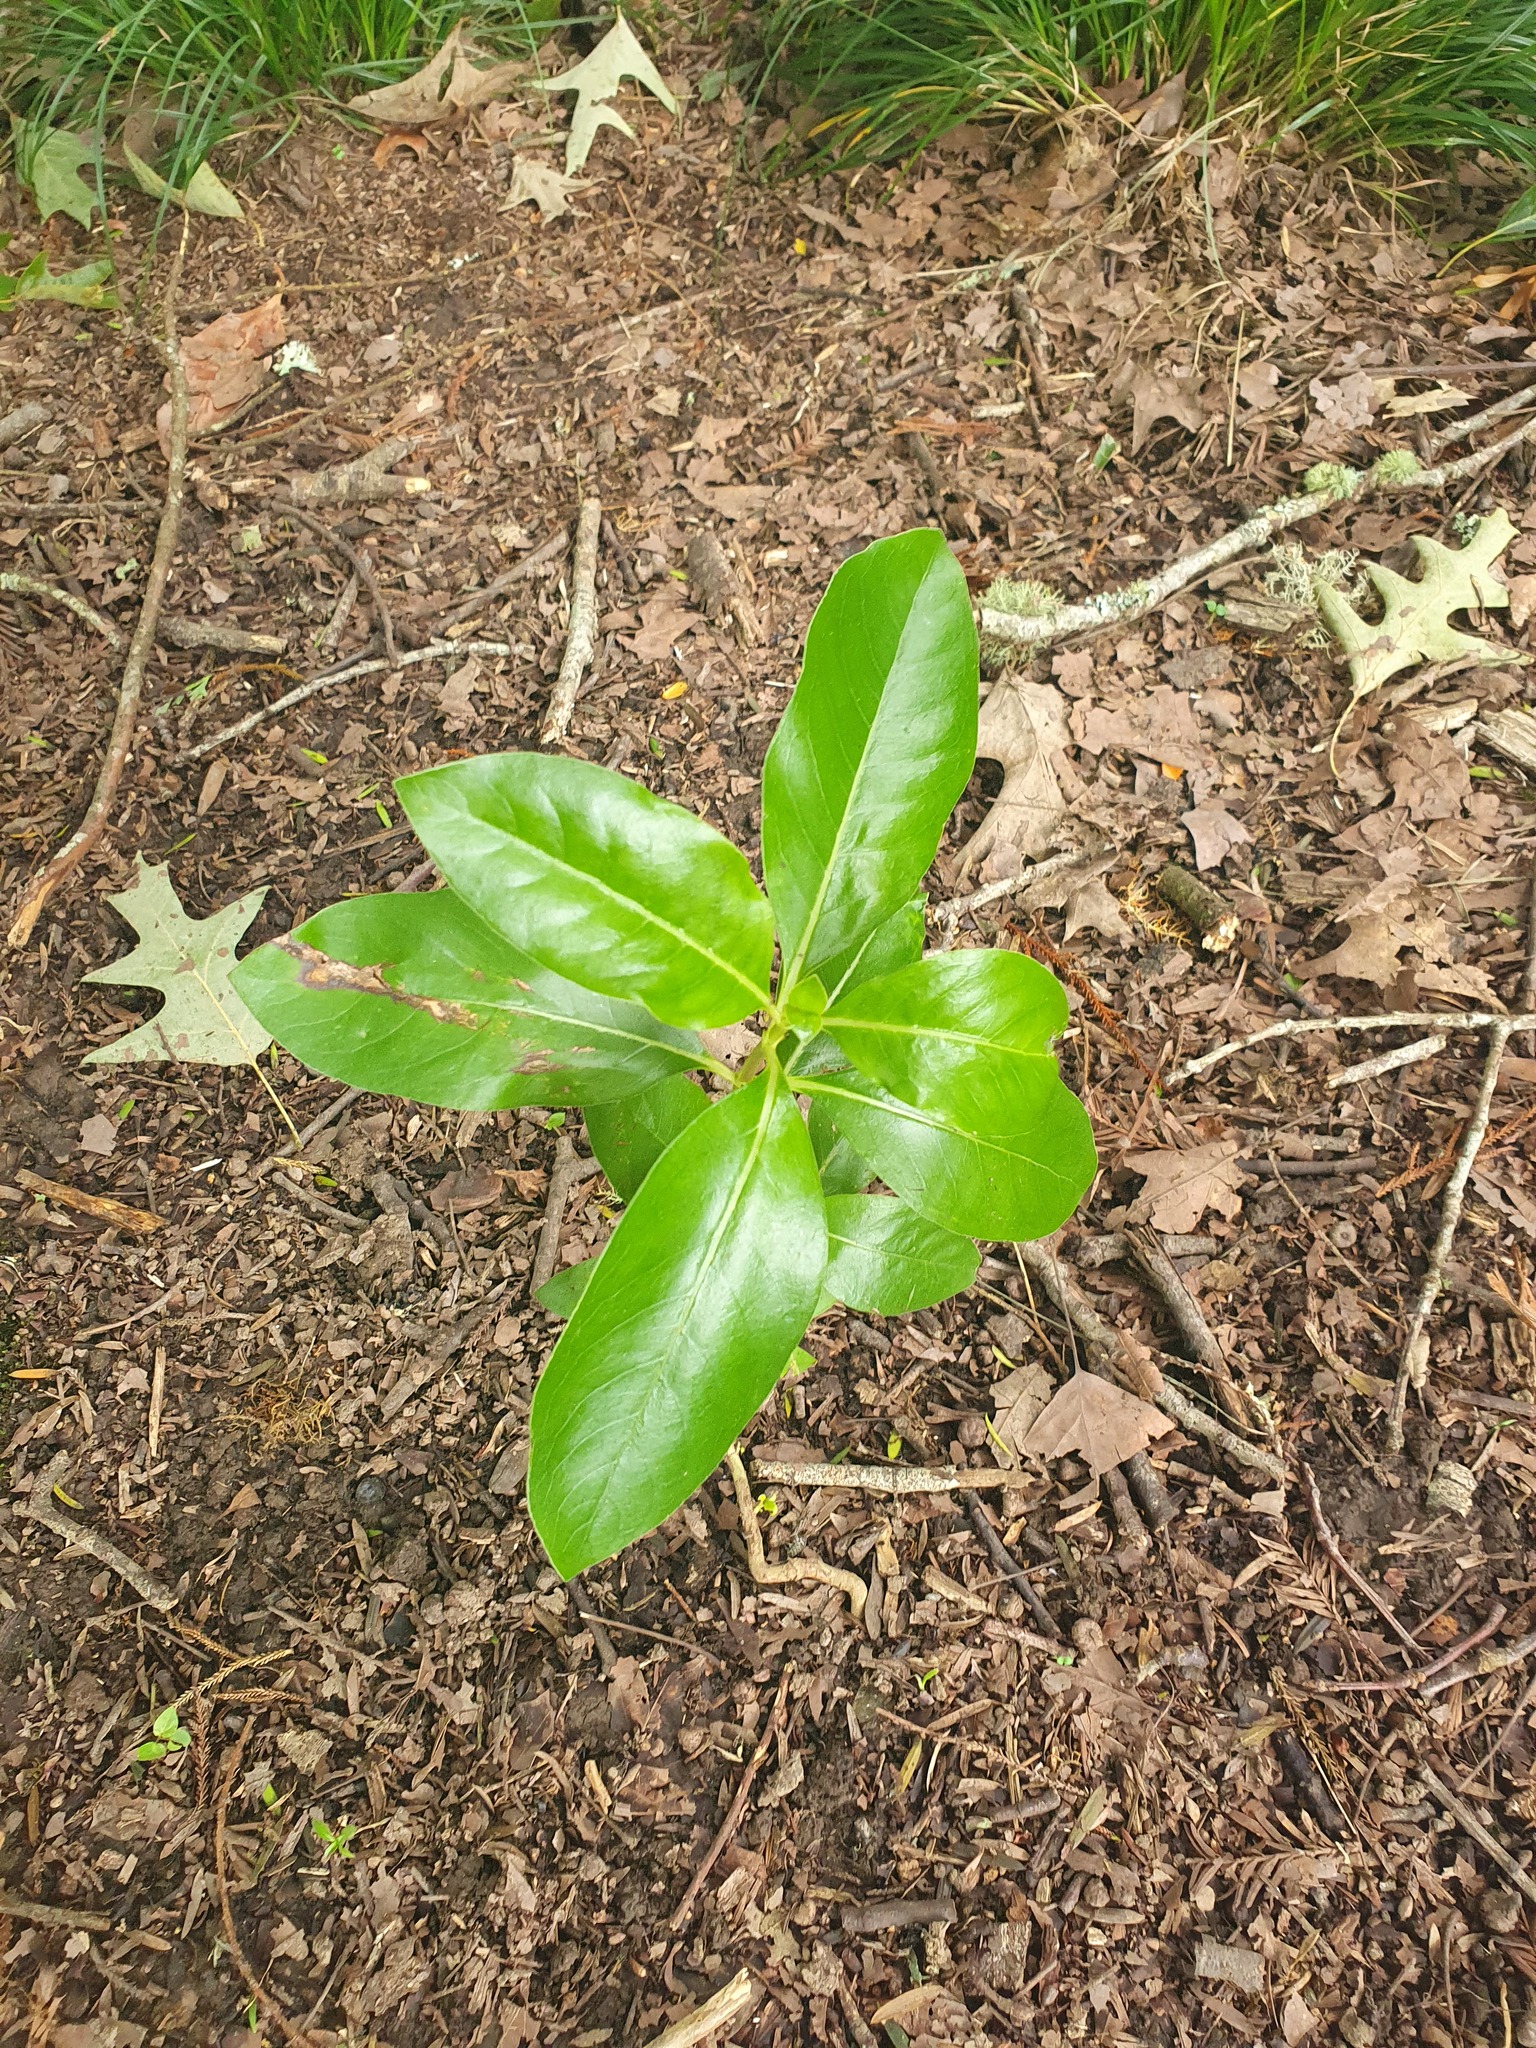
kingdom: Plantae
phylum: Tracheophyta
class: Magnoliopsida
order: Gentianales
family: Rubiaceae
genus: Coprosma
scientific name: Coprosma robusta
